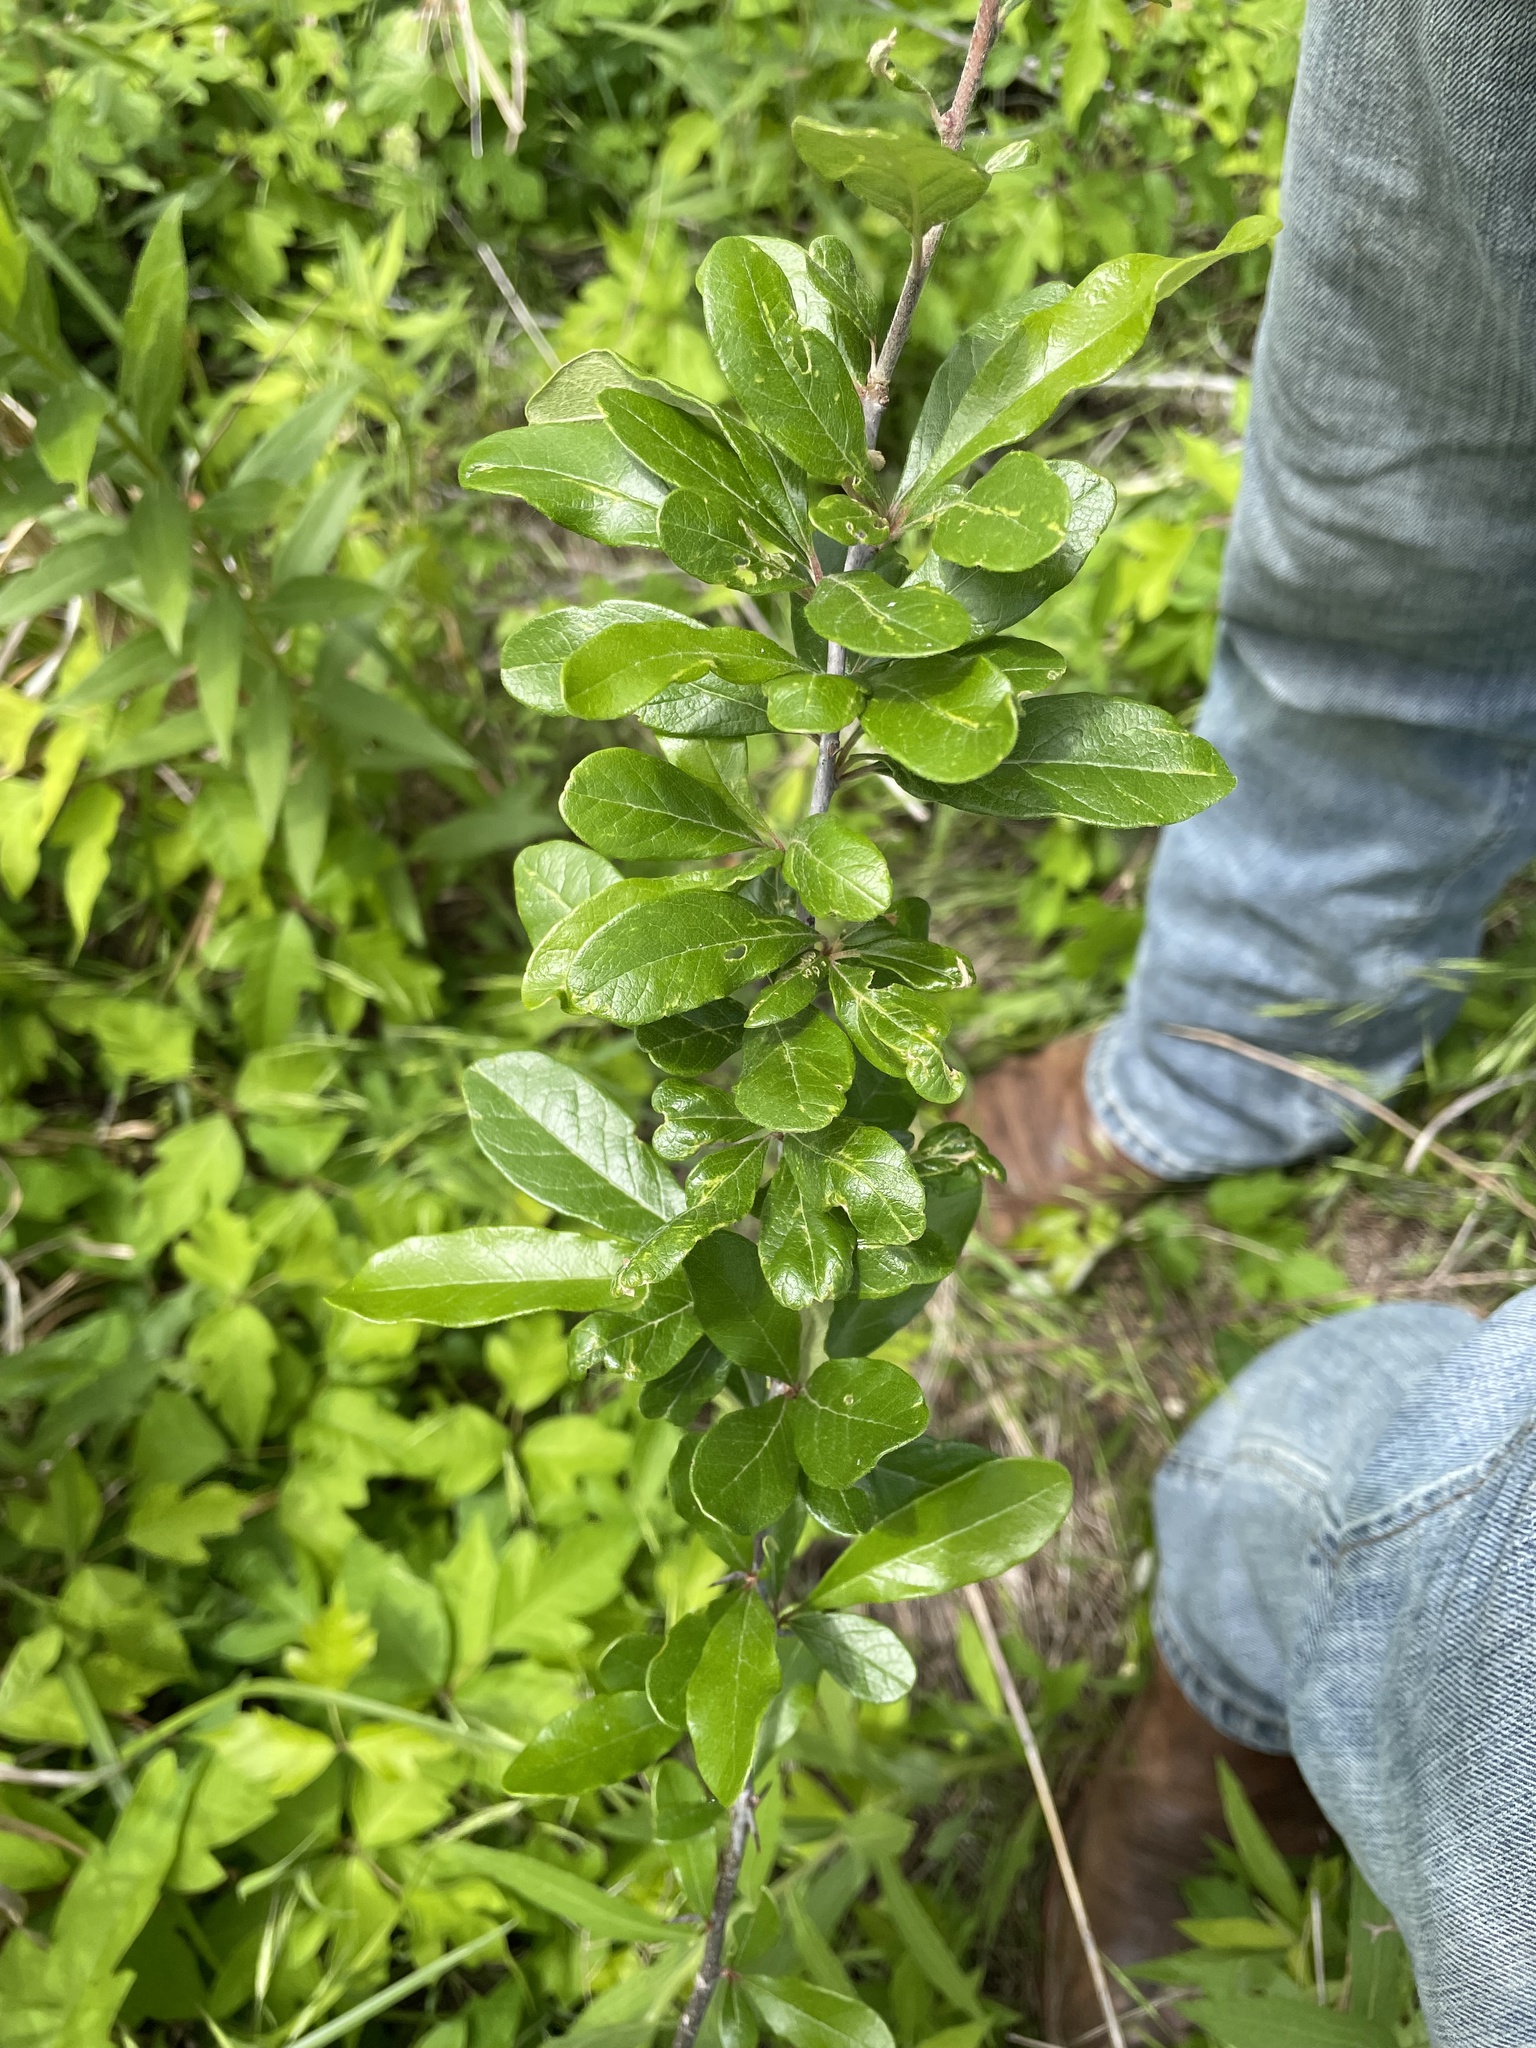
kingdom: Plantae
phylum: Tracheophyta
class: Magnoliopsida
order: Ericales
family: Sapotaceae
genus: Sideroxylon
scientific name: Sideroxylon lanuginosum
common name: Chittamwood
